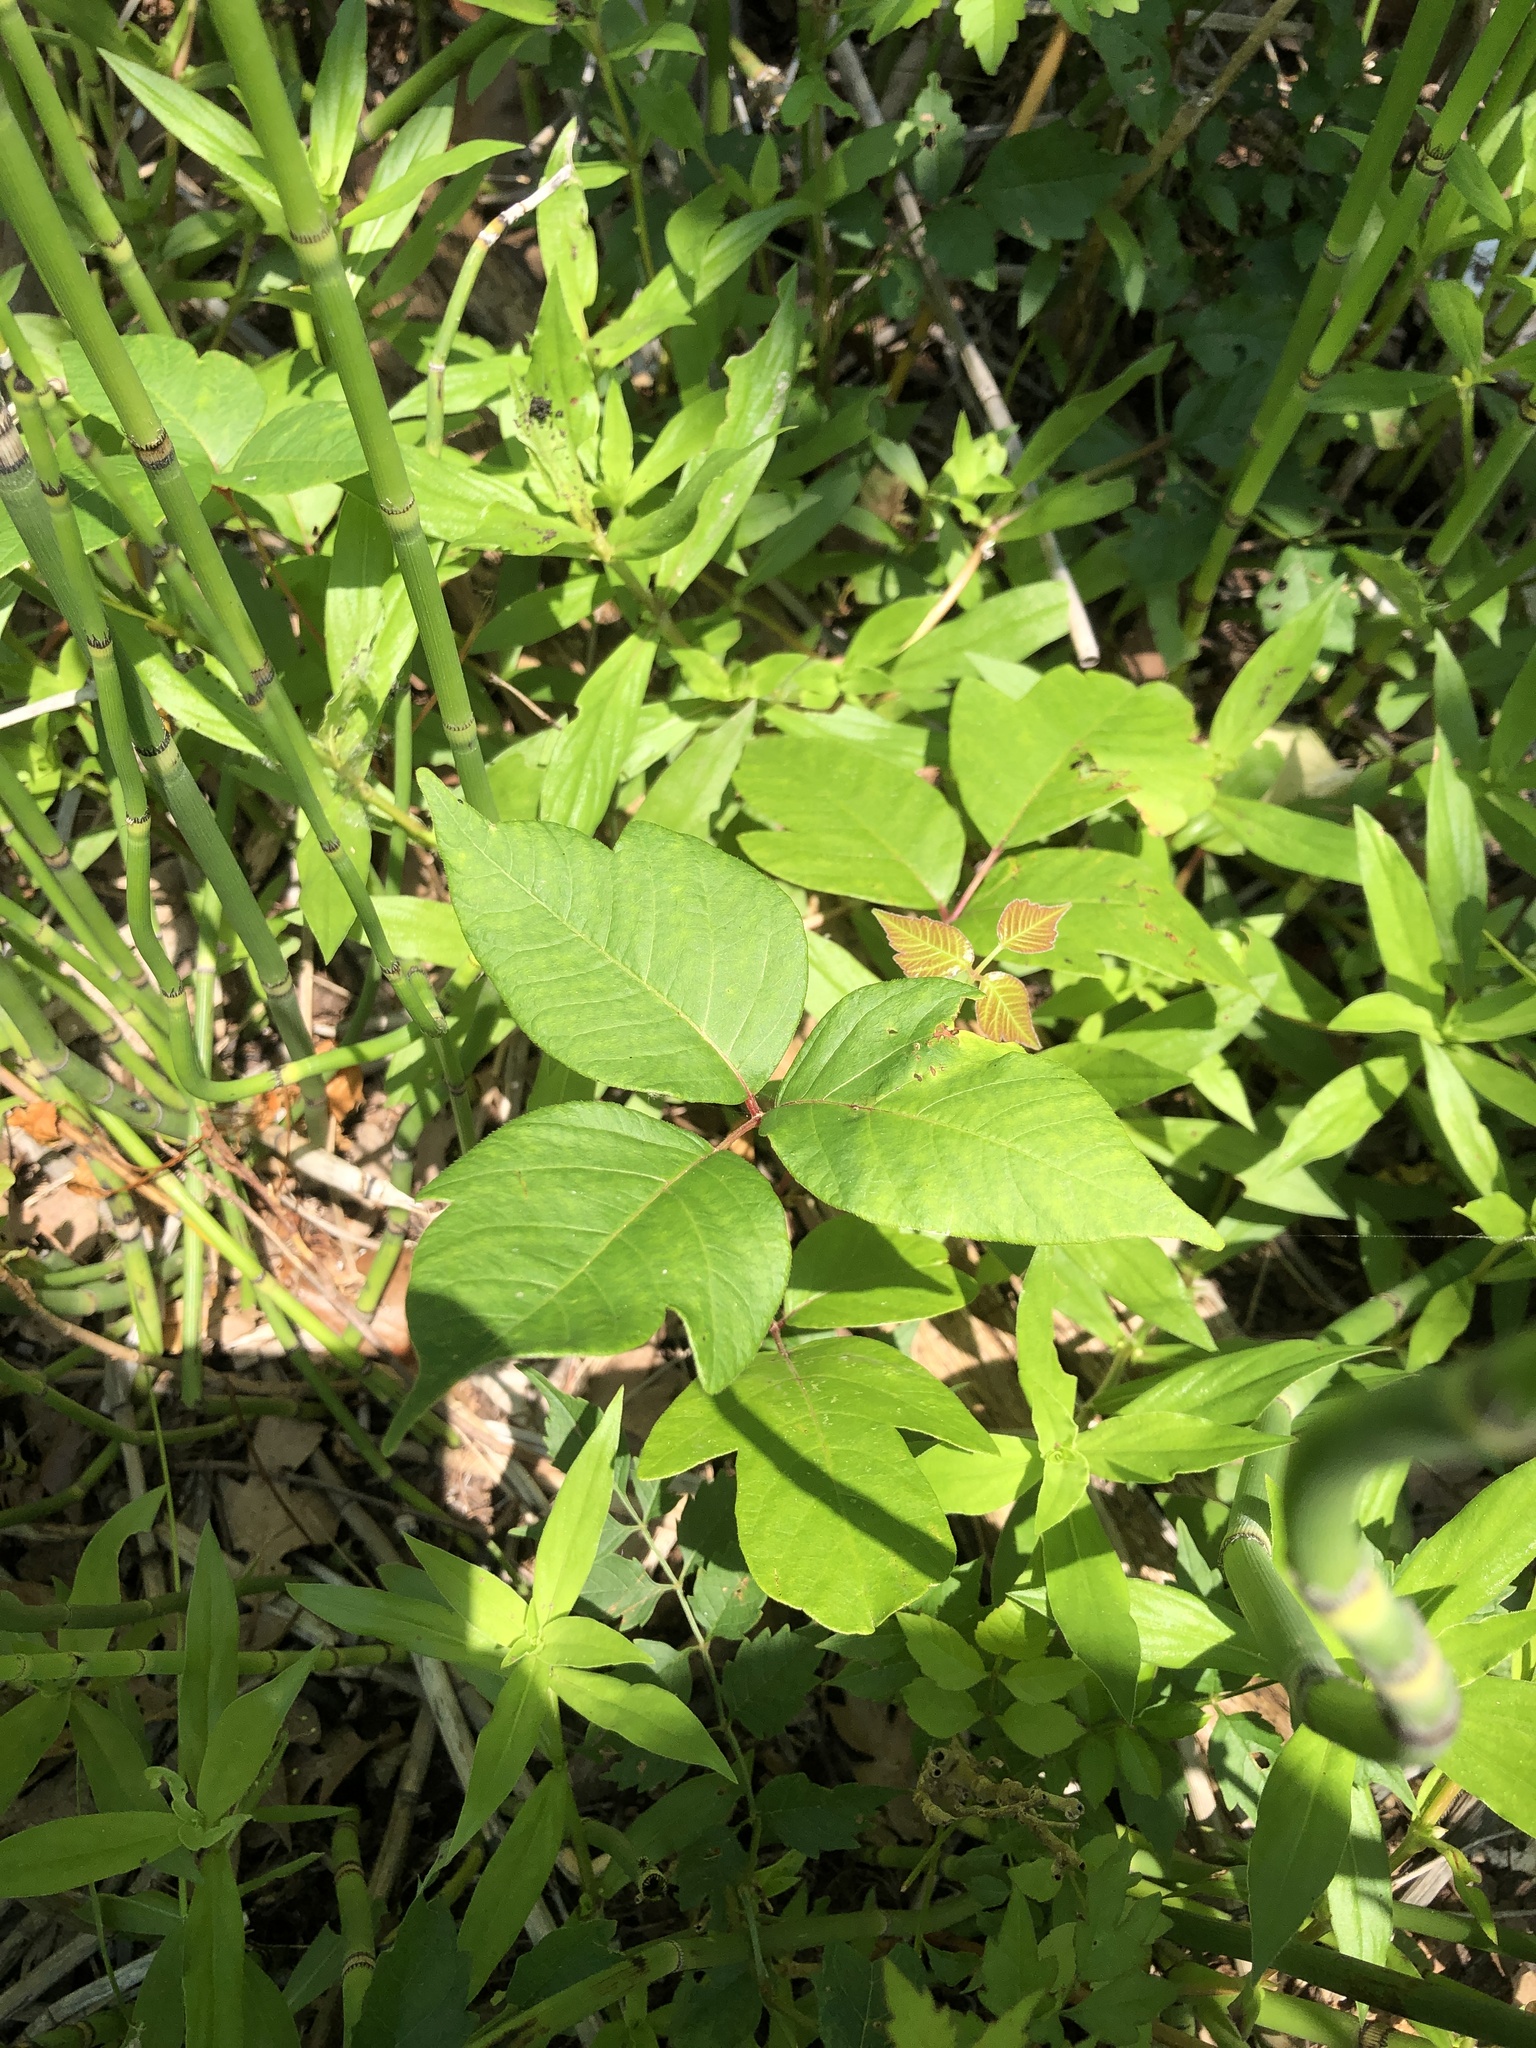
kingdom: Plantae
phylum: Tracheophyta
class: Magnoliopsida
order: Sapindales
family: Anacardiaceae
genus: Toxicodendron
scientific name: Toxicodendron radicans
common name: Poison ivy
